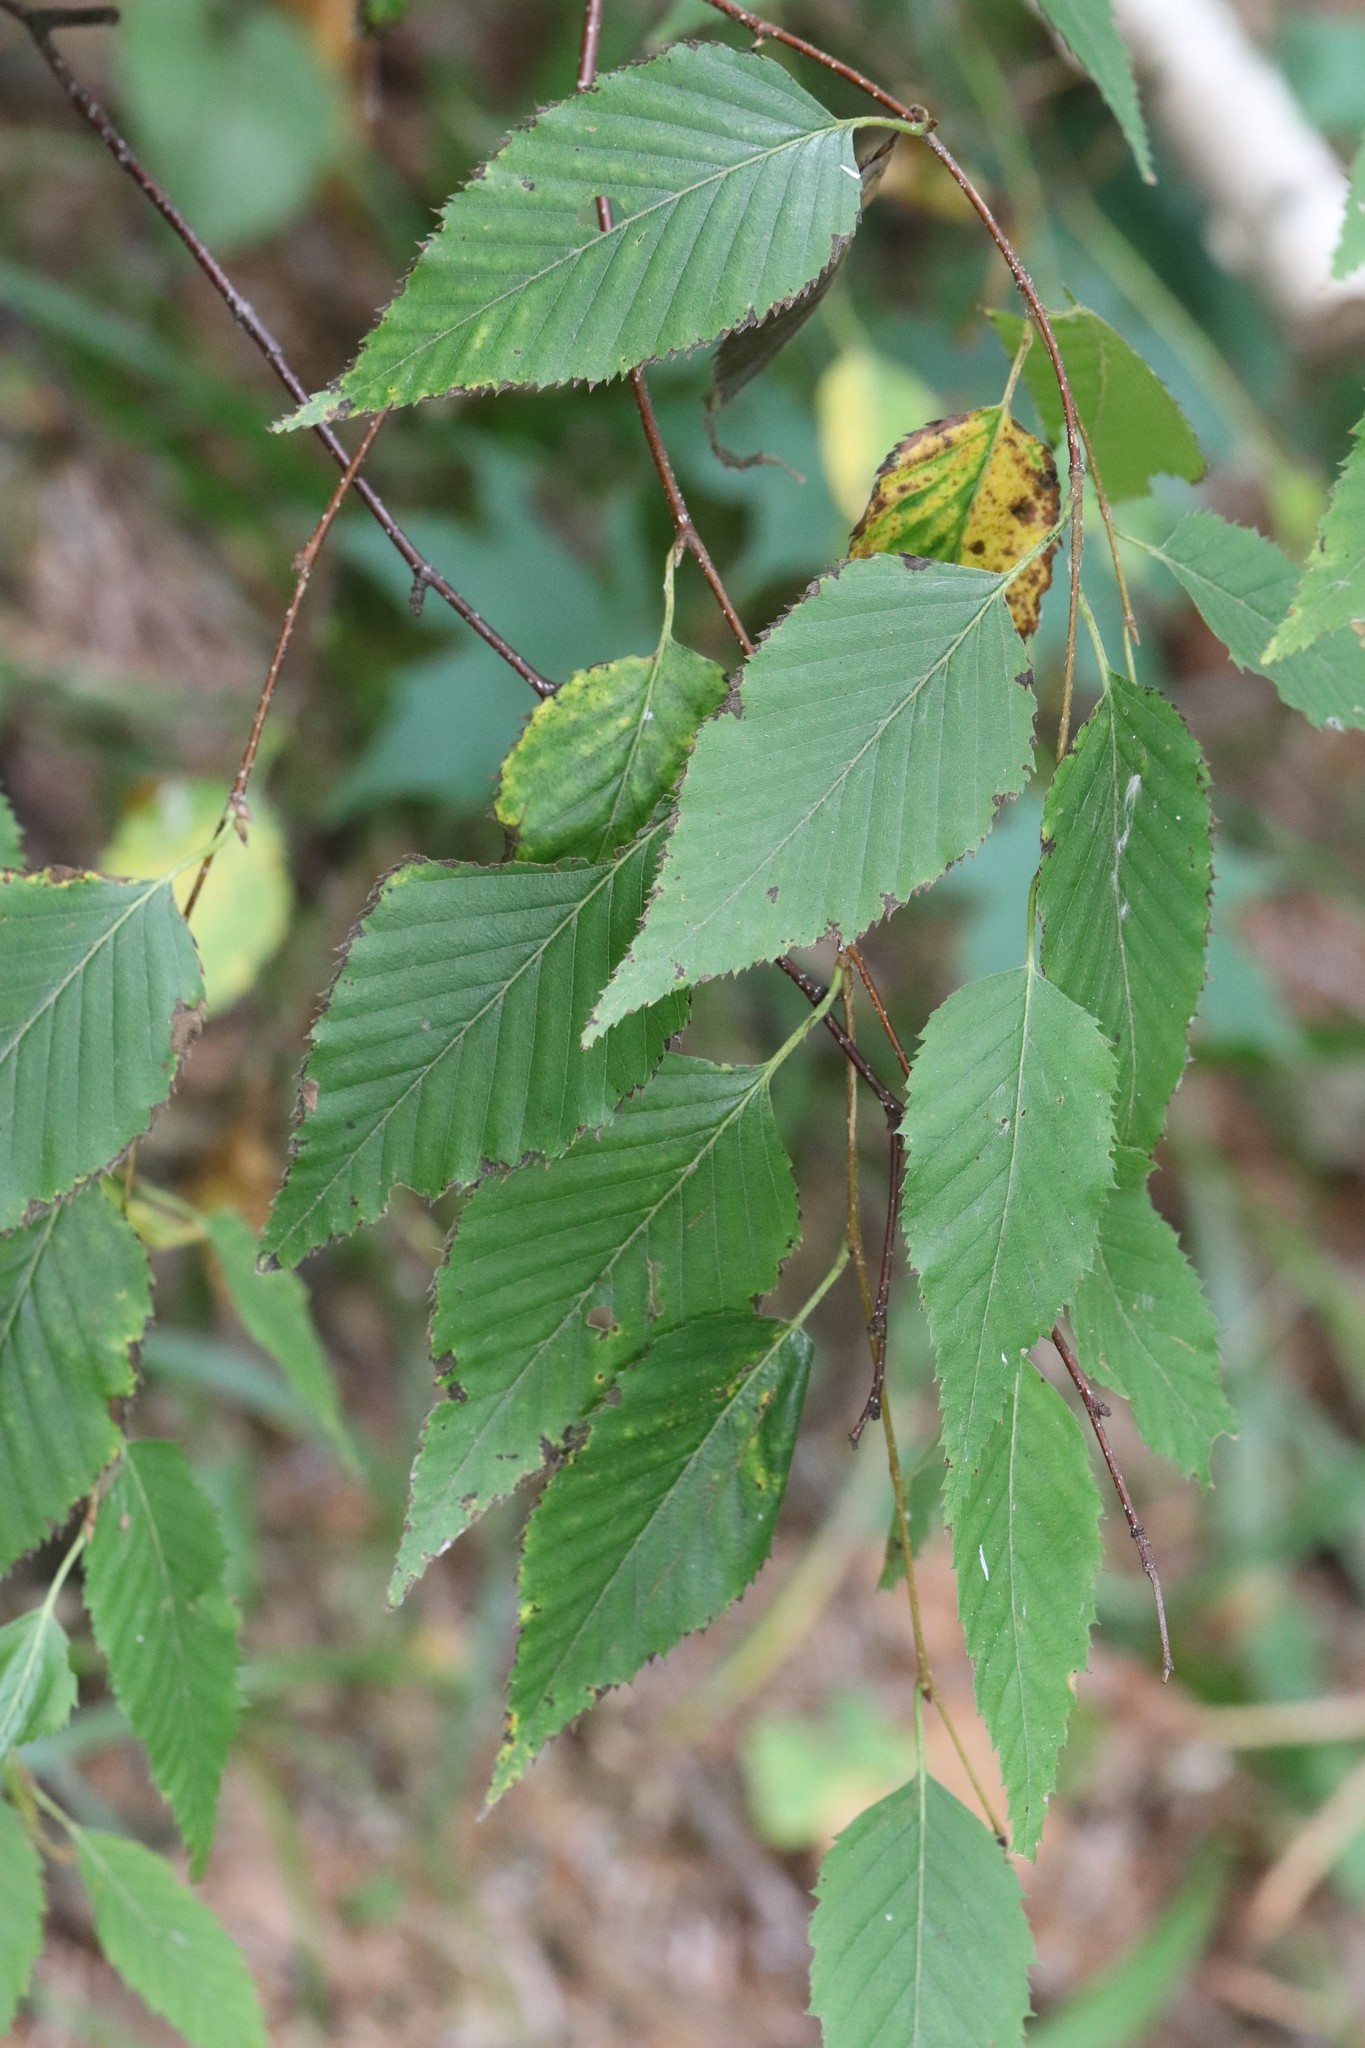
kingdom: Plantae
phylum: Tracheophyta
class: Magnoliopsida
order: Fagales
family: Betulaceae
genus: Betula
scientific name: Betula costata
